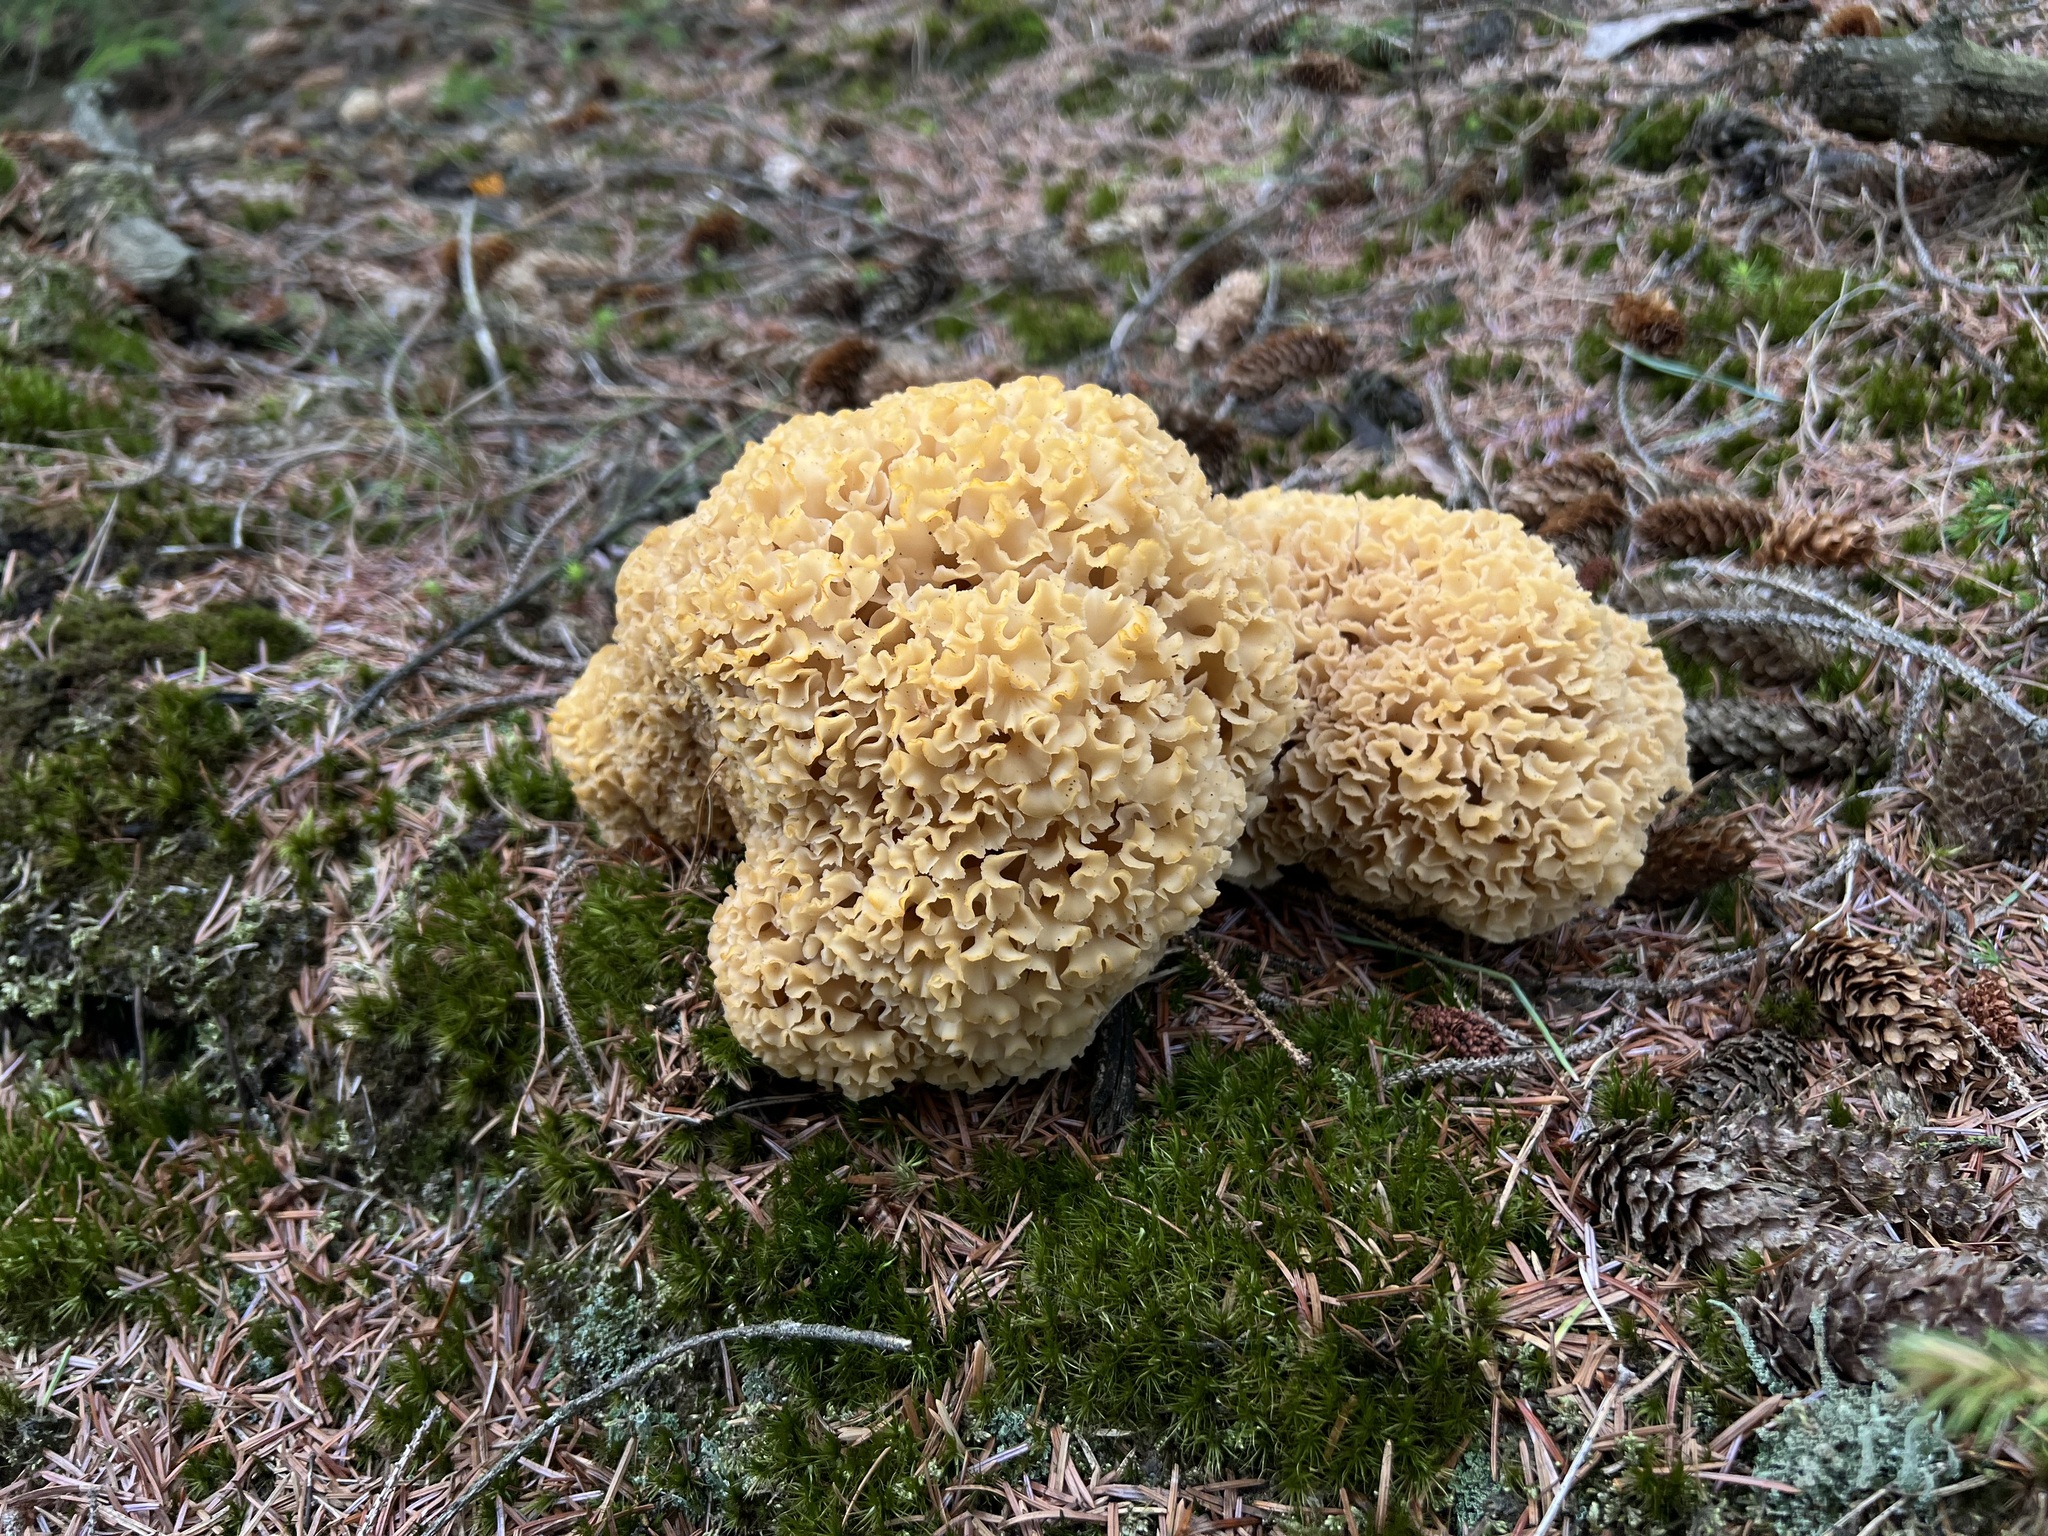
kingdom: Fungi
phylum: Basidiomycota
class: Agaricomycetes
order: Polyporales
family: Sparassidaceae
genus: Sparassis
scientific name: Sparassis crispa
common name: Brain fungus
